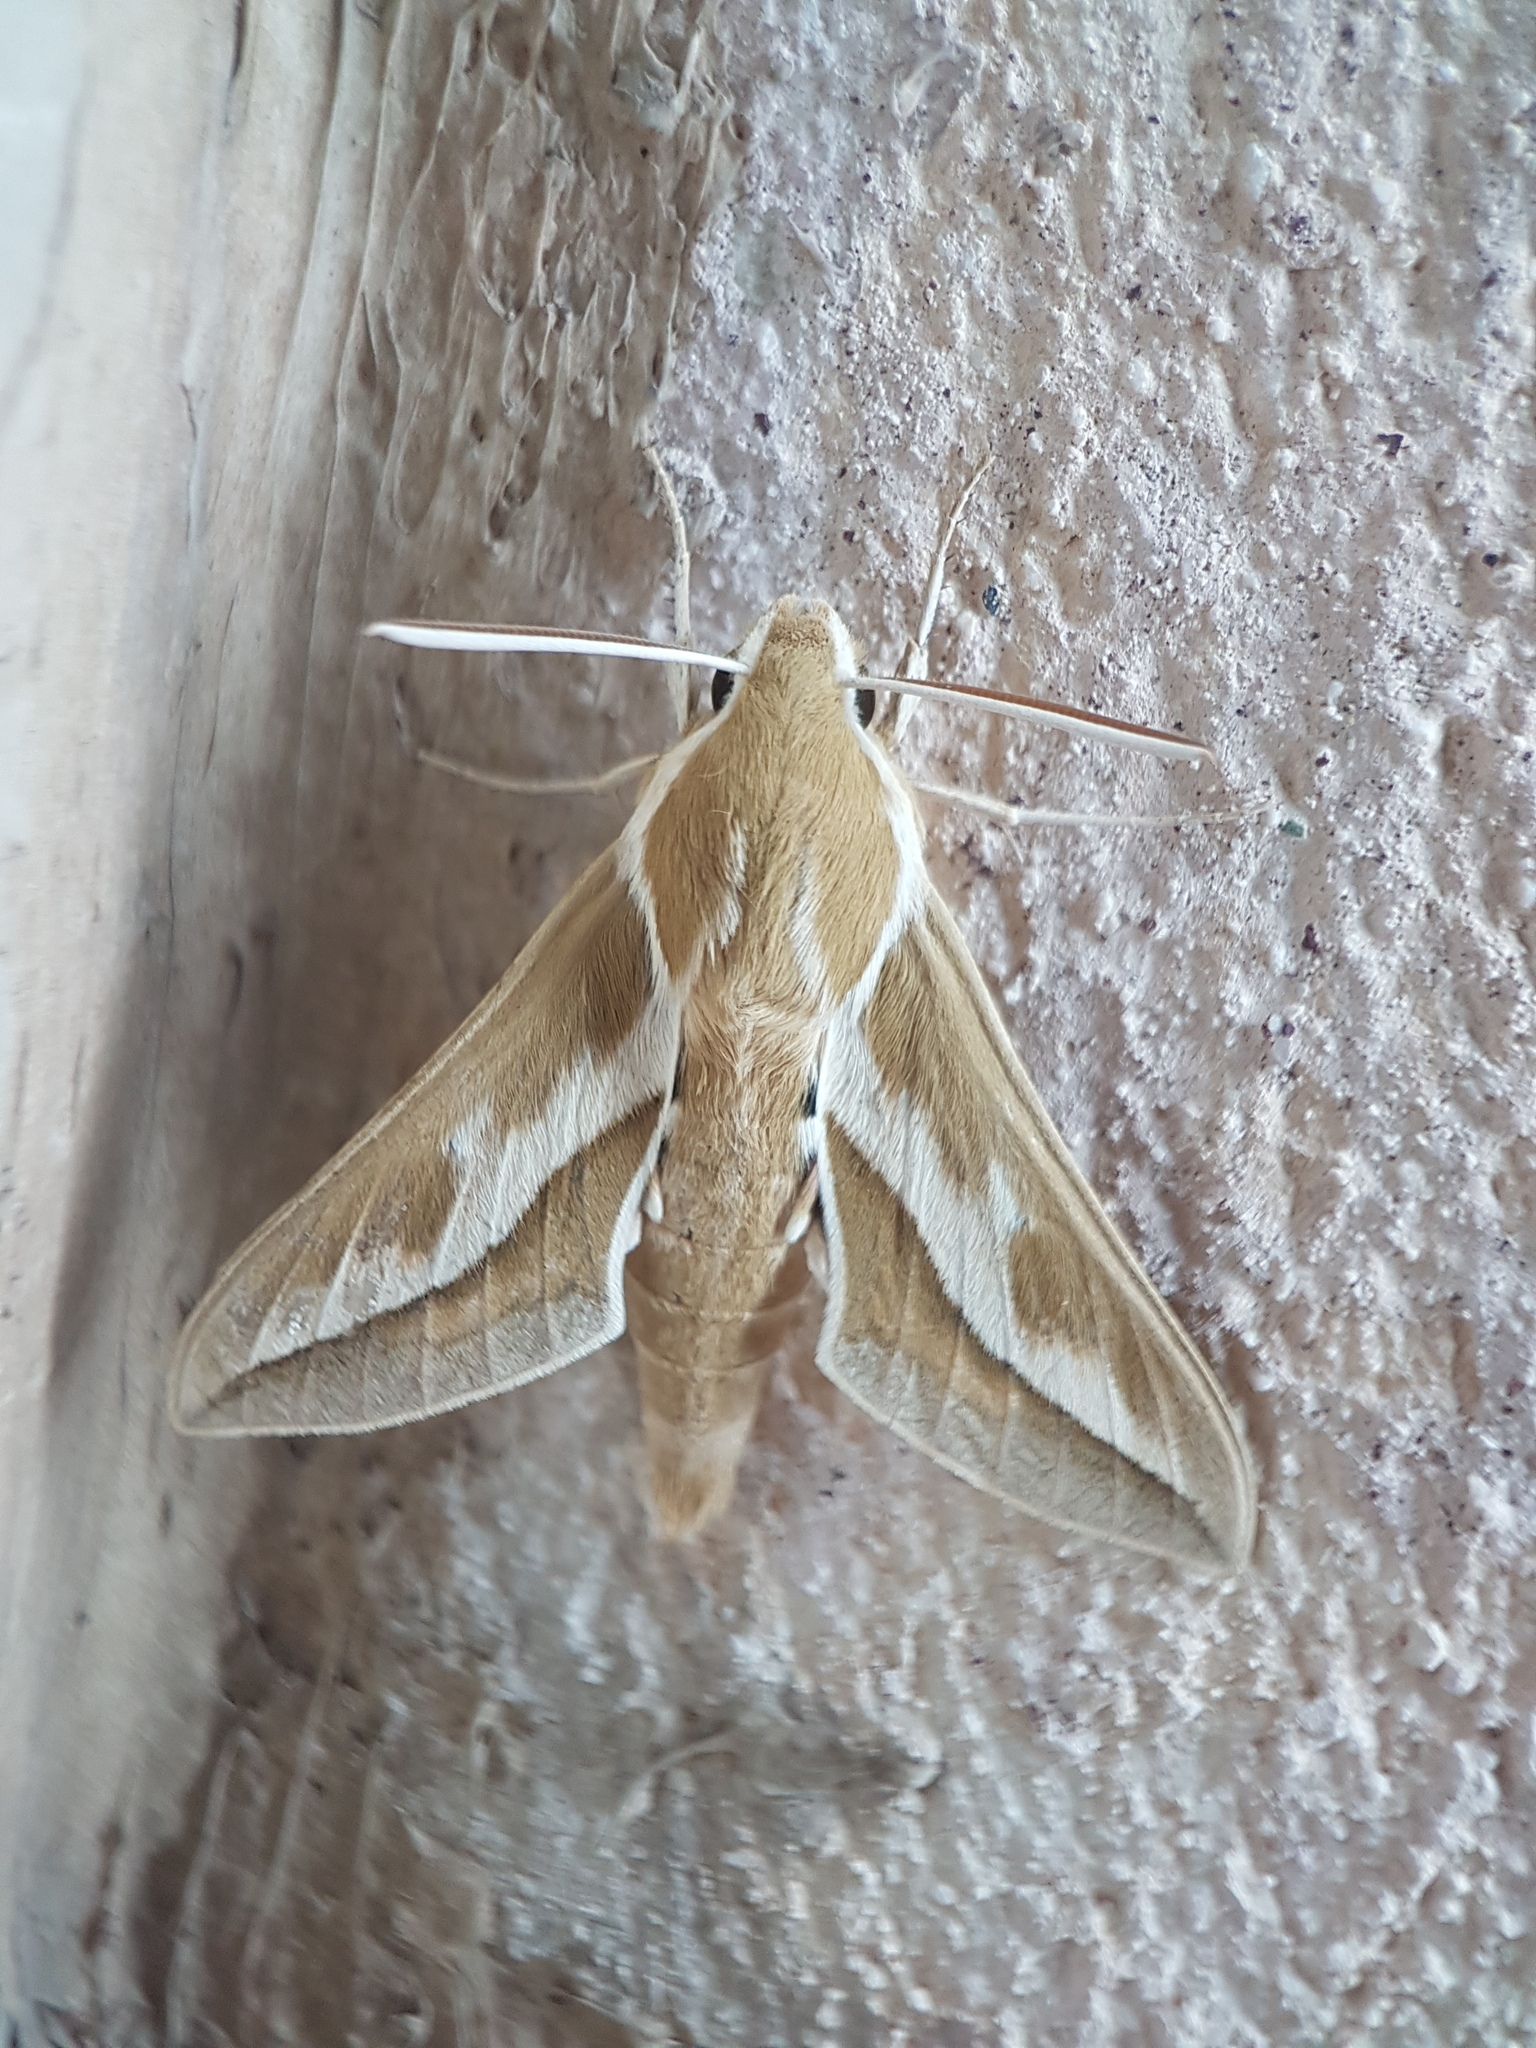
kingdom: Animalia
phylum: Arthropoda
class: Insecta
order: Lepidoptera
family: Sphingidae
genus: Hyles
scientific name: Hyles zygophylli
